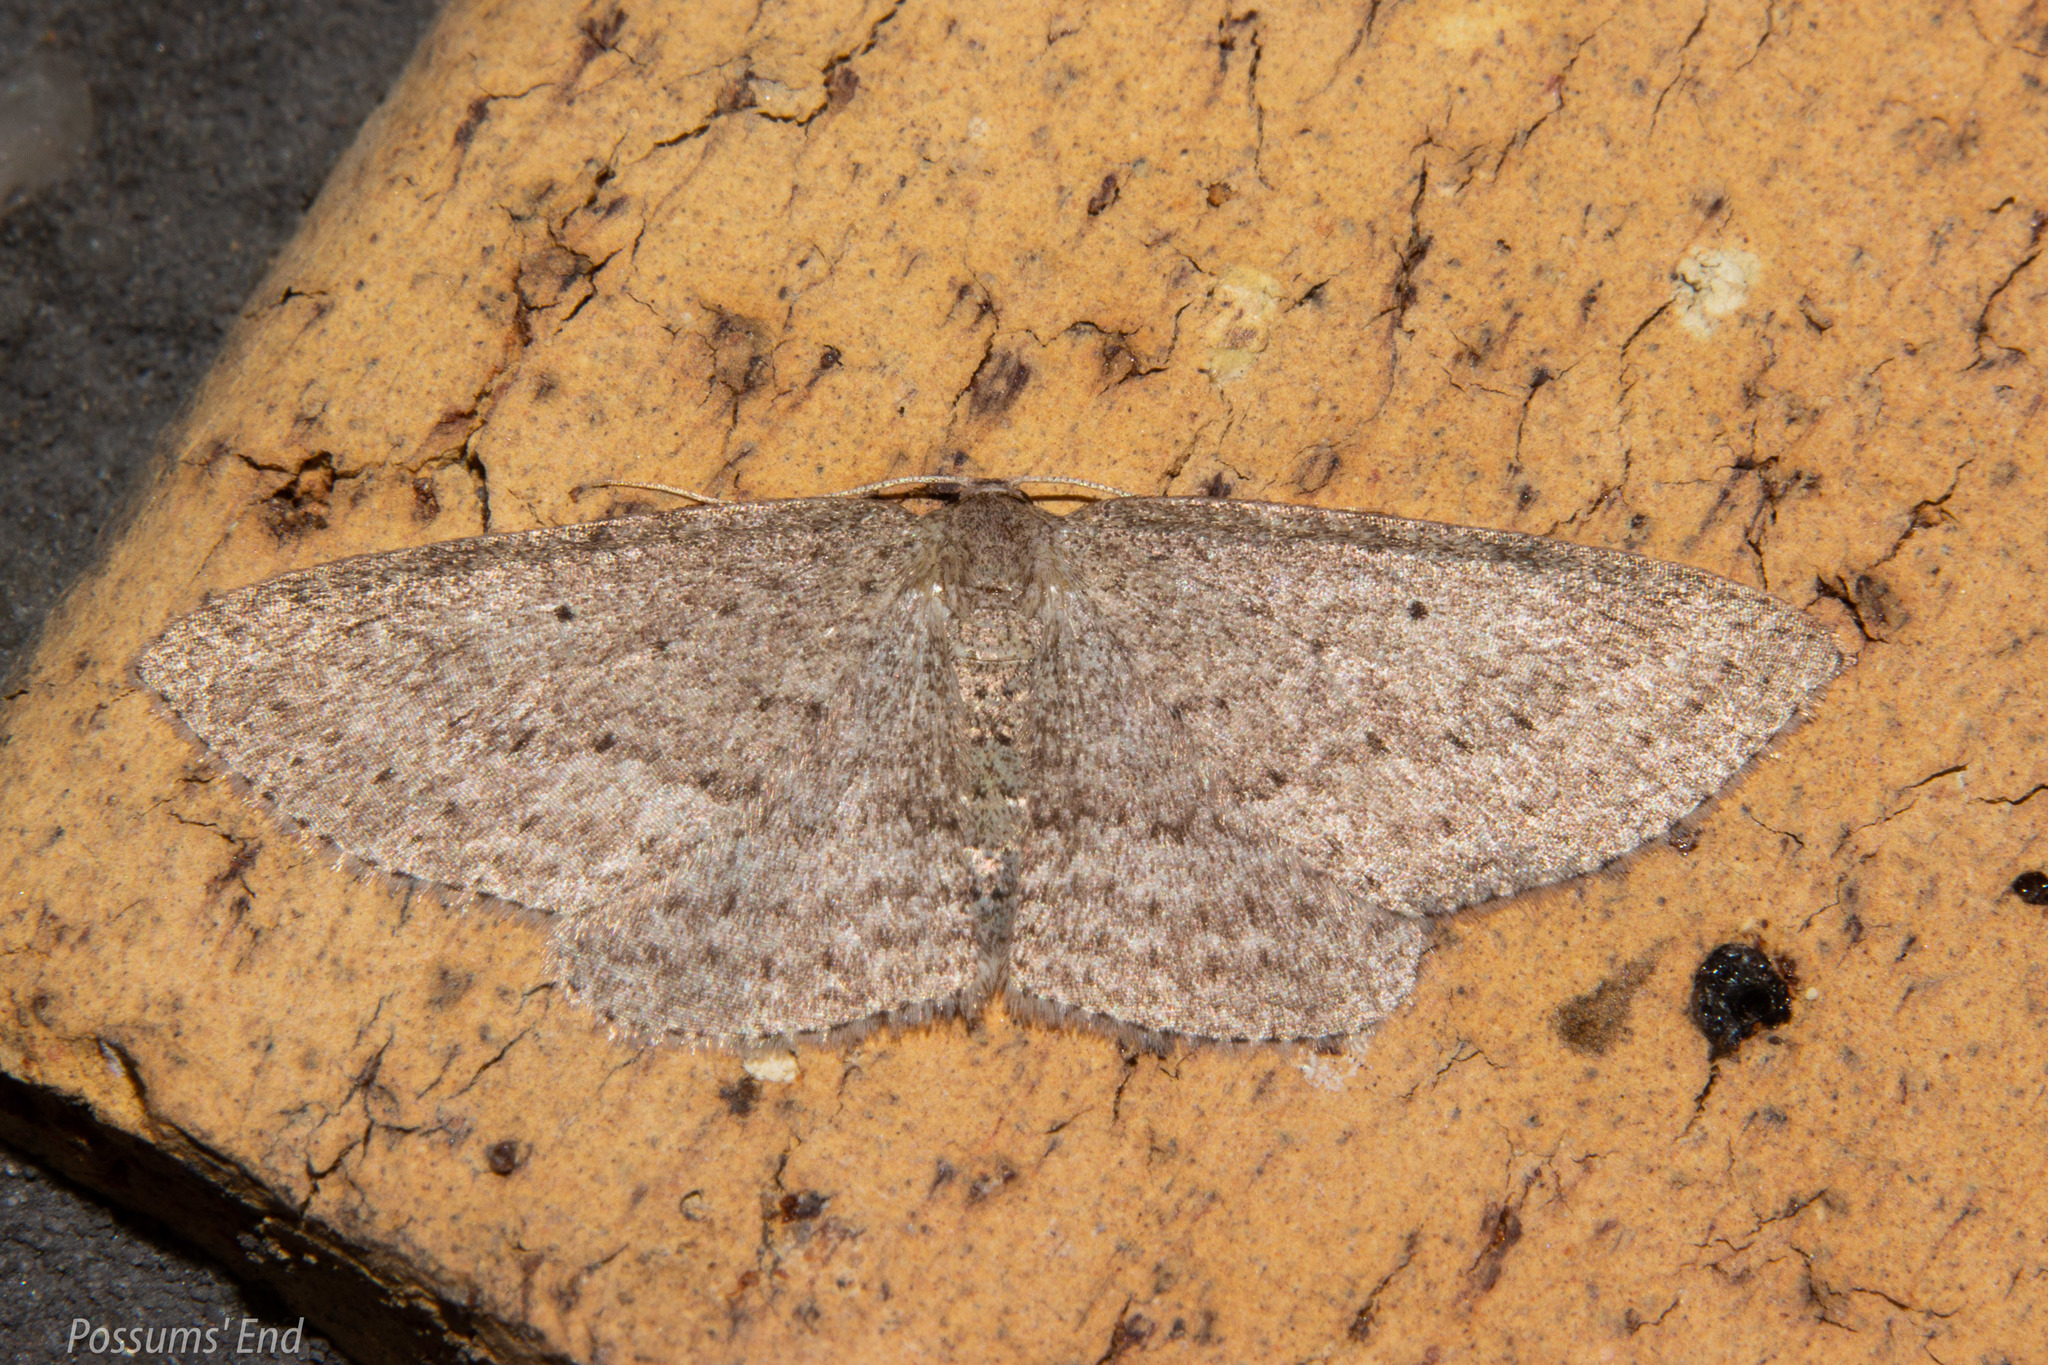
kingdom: Animalia
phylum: Arthropoda
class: Insecta
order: Lepidoptera
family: Geometridae
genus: Poecilasthena
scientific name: Poecilasthena schistaria
